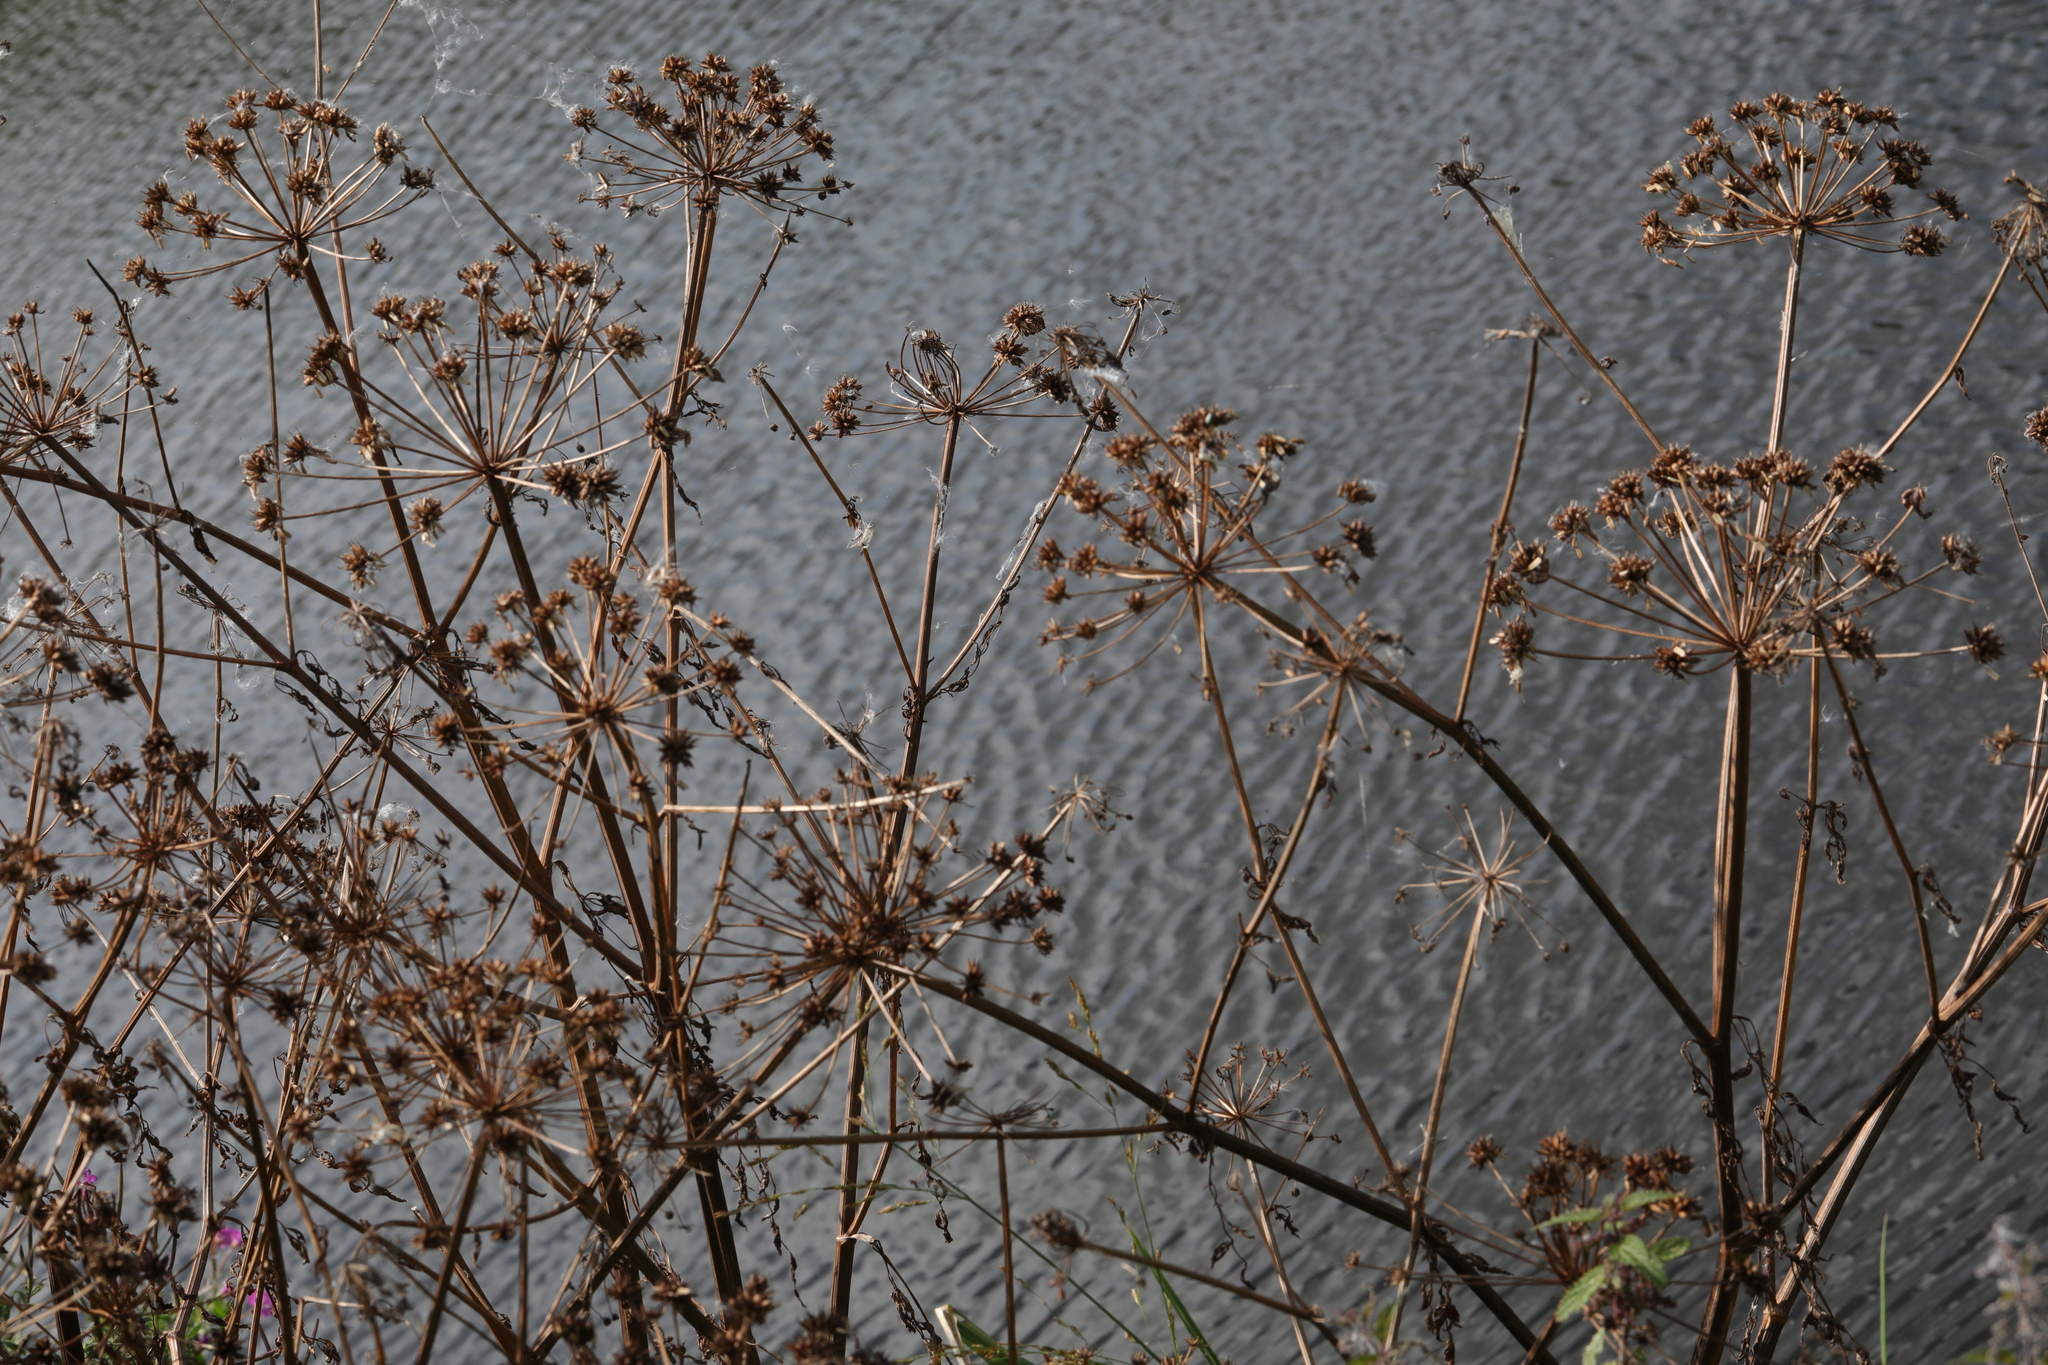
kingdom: Plantae
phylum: Tracheophyta
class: Magnoliopsida
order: Apiales
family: Apiaceae
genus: Oenanthe
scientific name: Oenanthe crocata
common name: Hemlock water-dropwort
